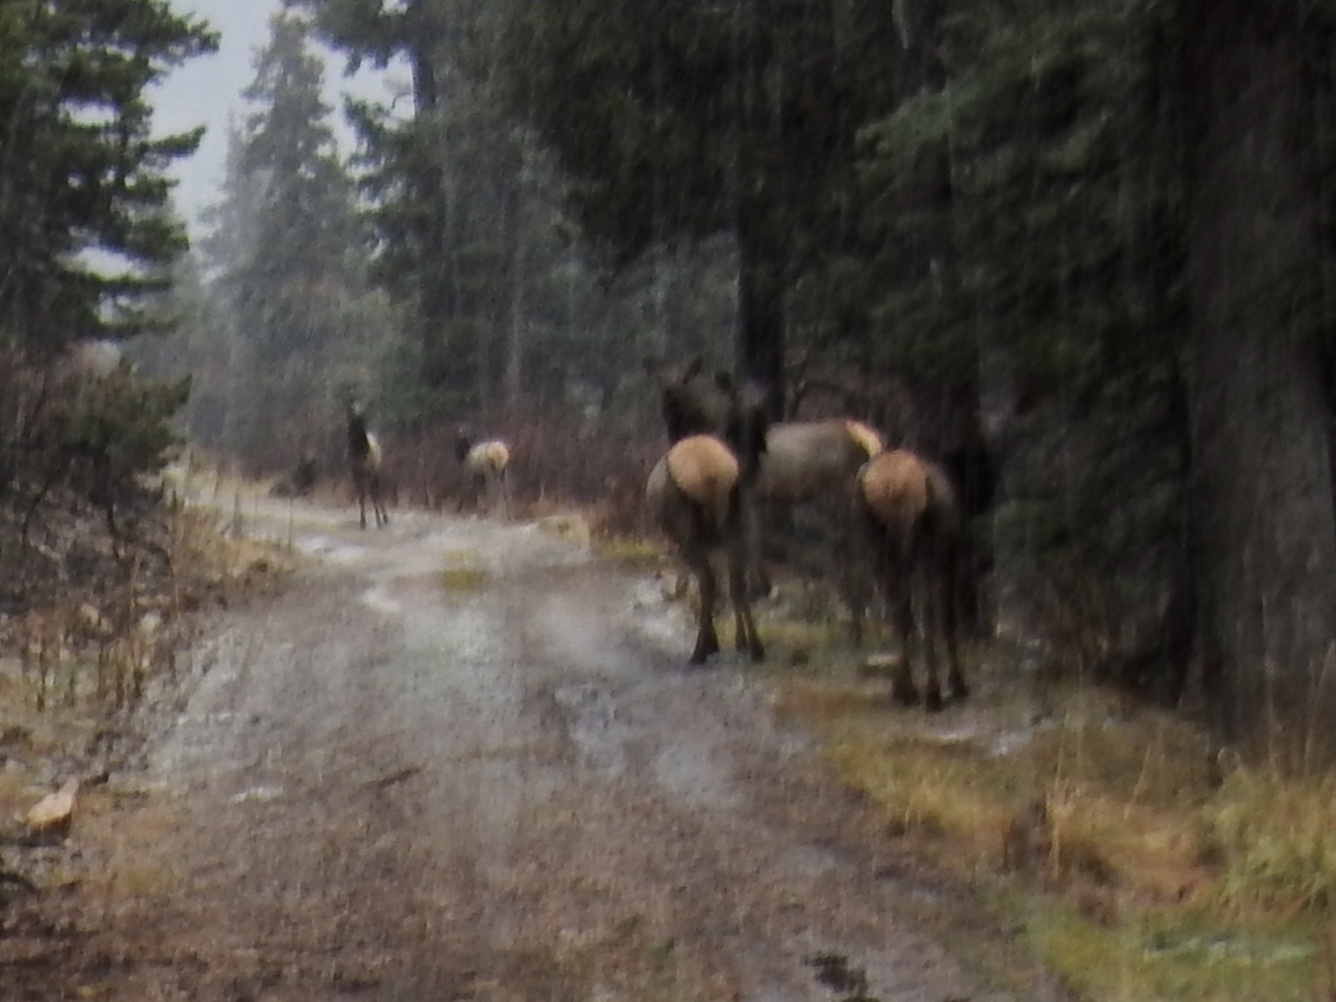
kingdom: Animalia
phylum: Chordata
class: Mammalia
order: Artiodactyla
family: Cervidae
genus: Cervus
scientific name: Cervus elaphus
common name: Red deer
